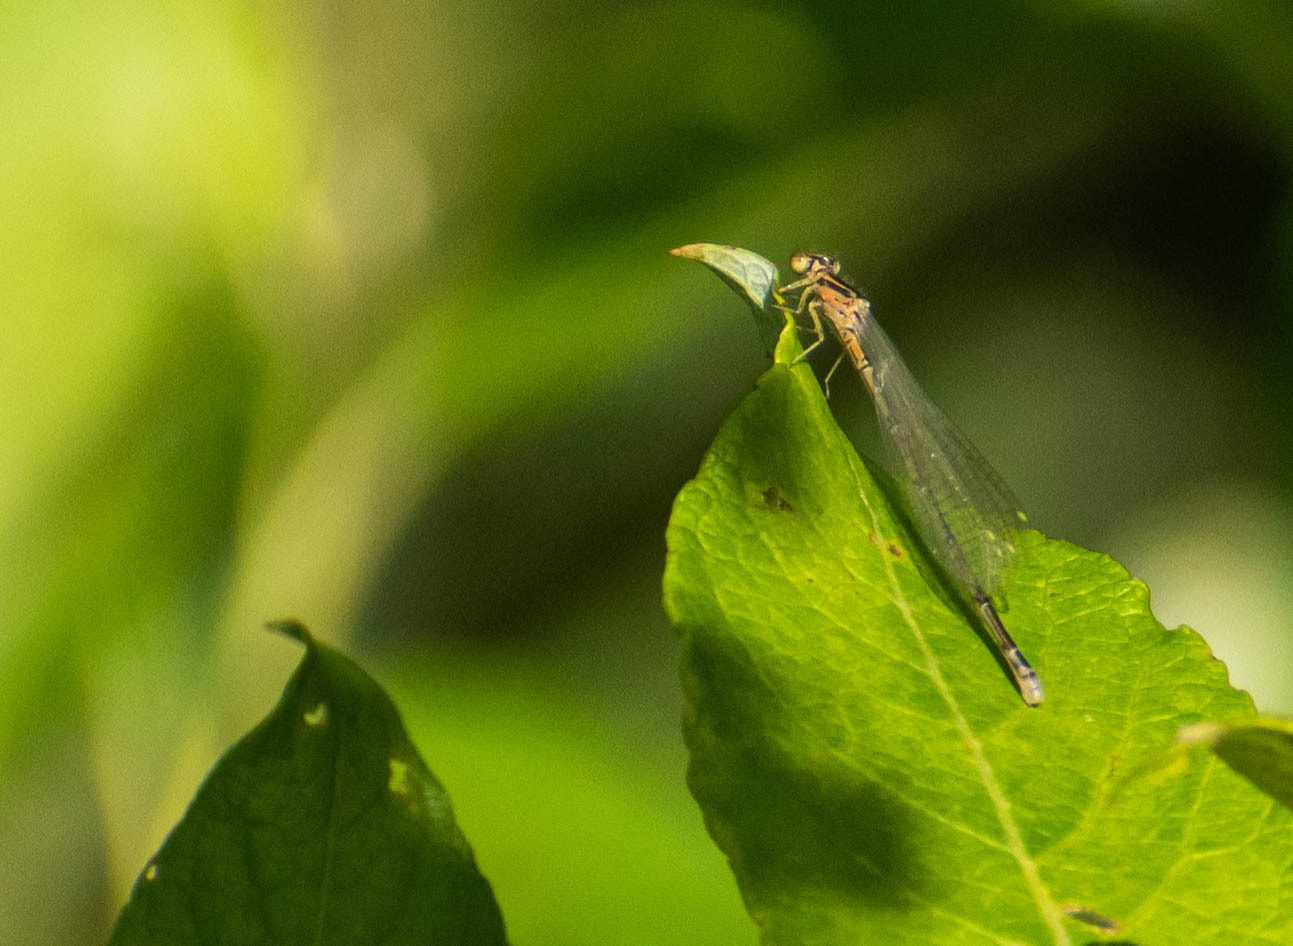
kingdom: Animalia
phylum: Arthropoda
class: Insecta
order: Odonata
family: Coenagrionidae
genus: Coenagrion
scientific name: Coenagrion johanssoni
